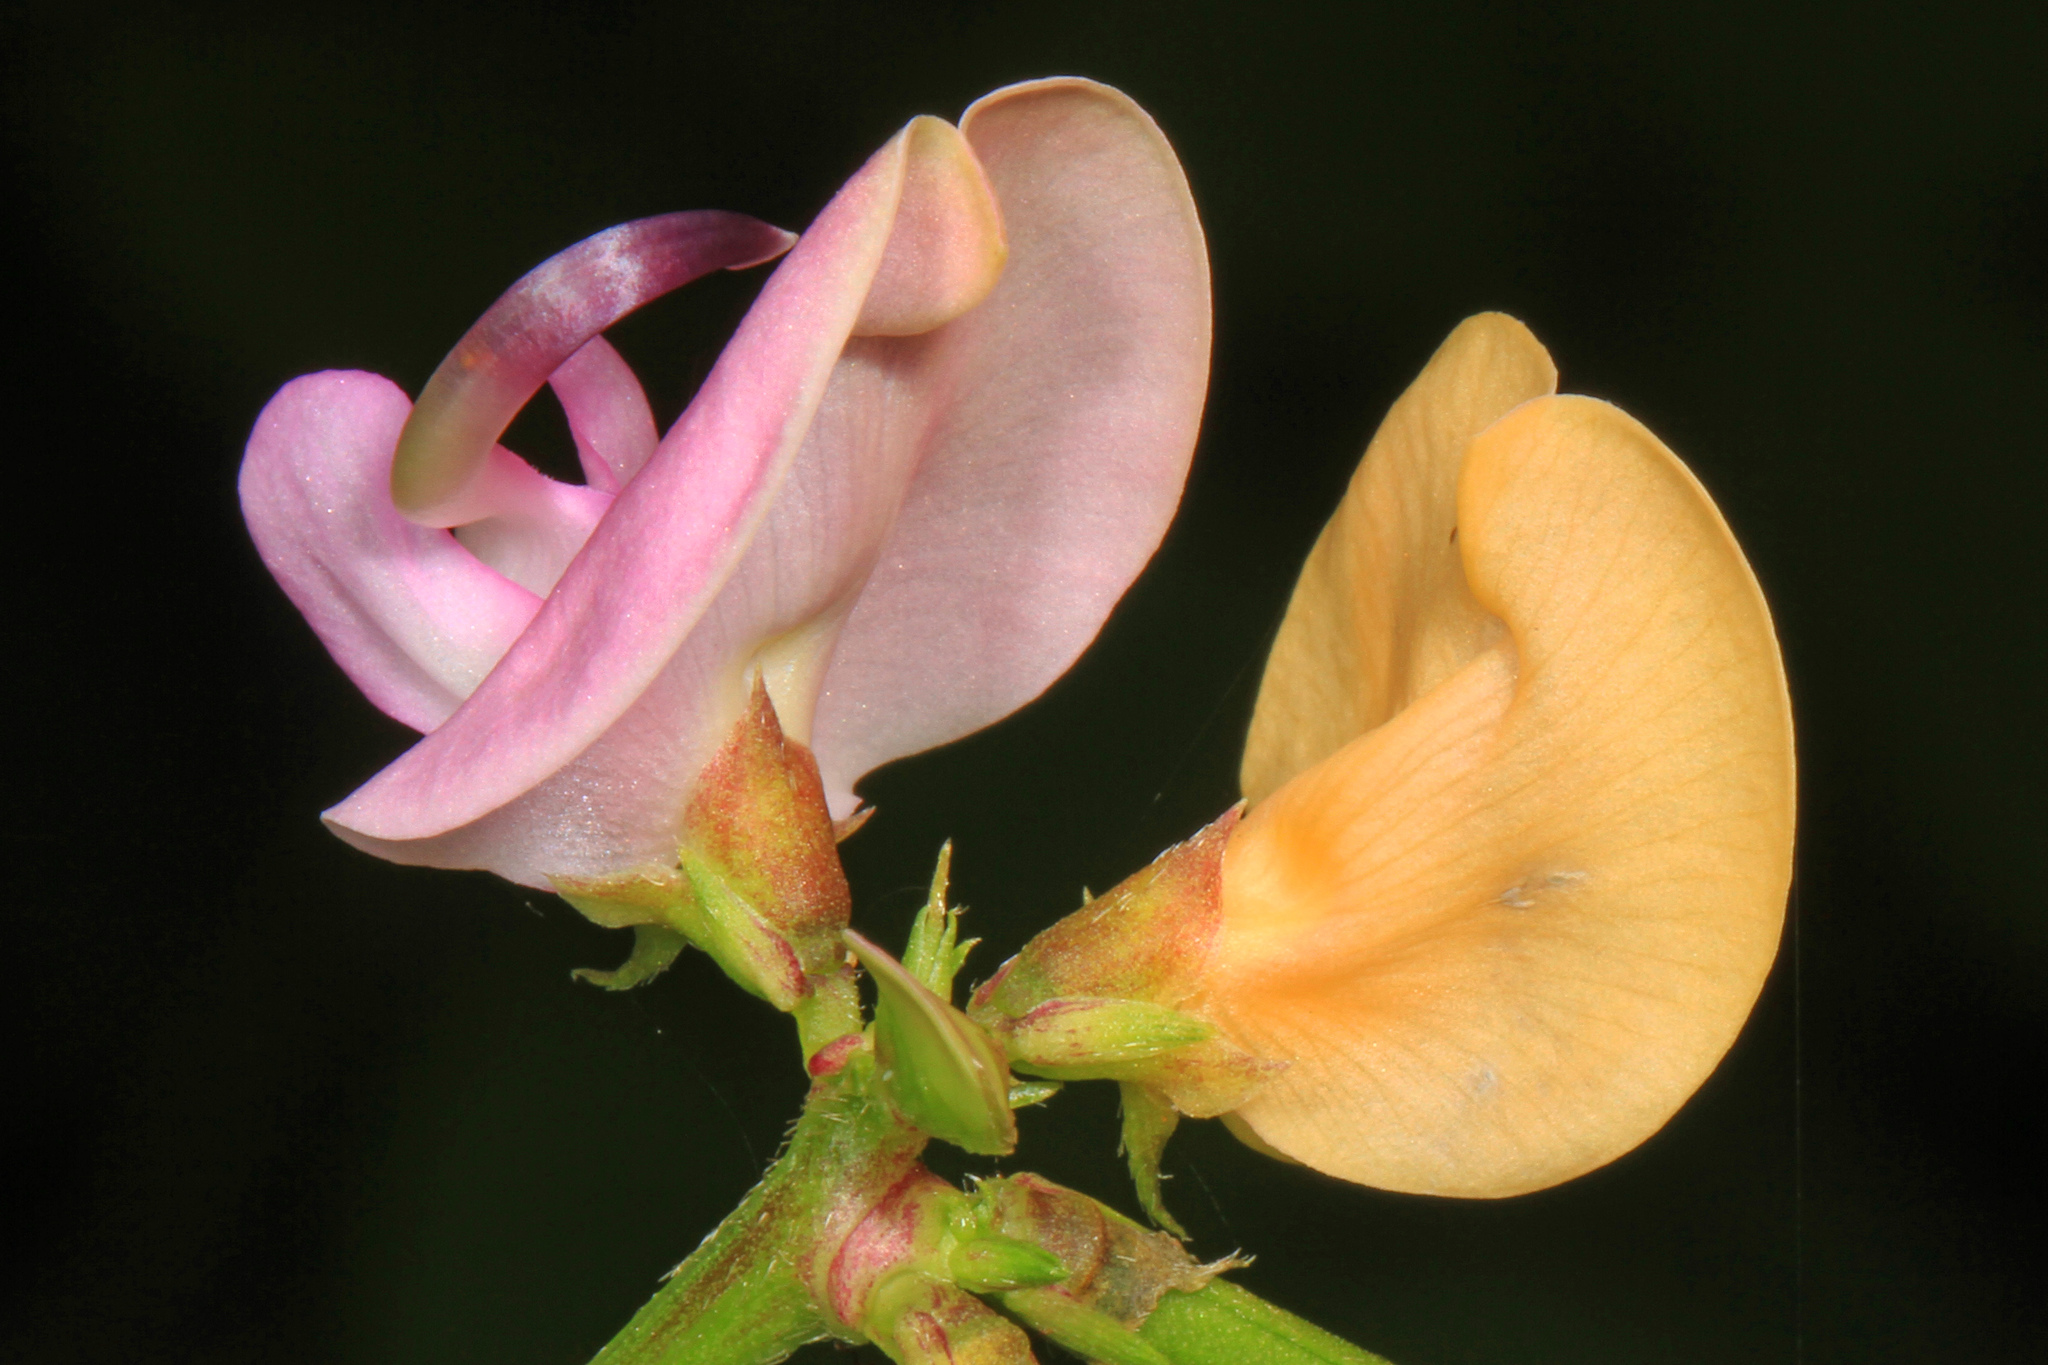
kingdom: Plantae
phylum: Tracheophyta
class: Magnoliopsida
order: Fabales
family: Fabaceae
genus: Strophostyles
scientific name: Strophostyles helvola
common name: Trailing wild bean
